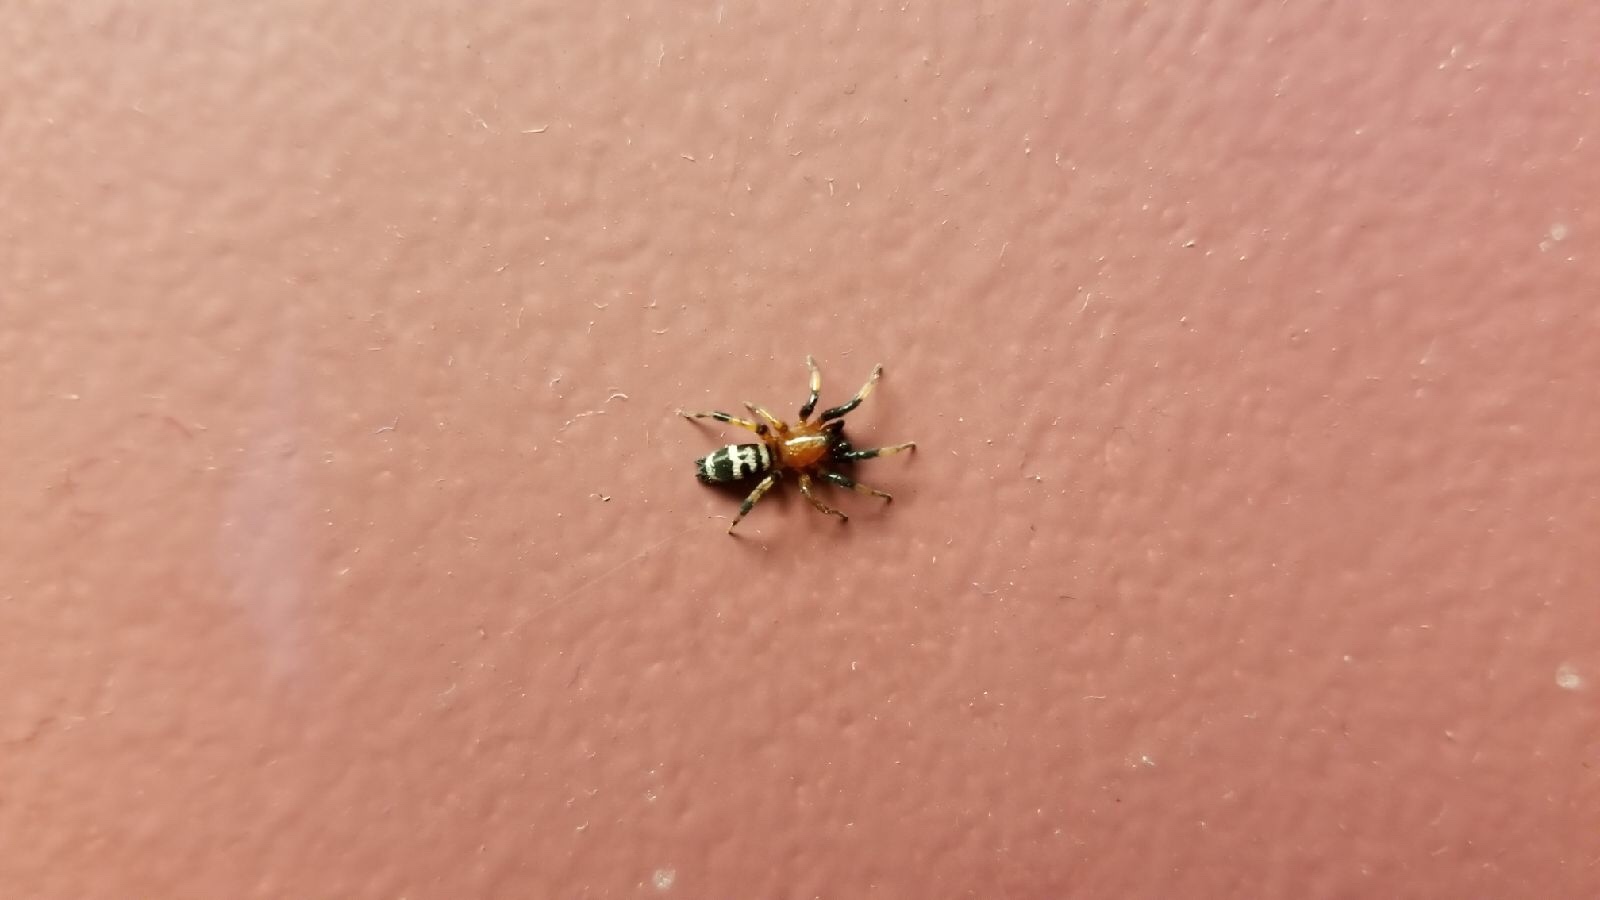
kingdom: Animalia
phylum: Arthropoda
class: Arachnida
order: Araneae
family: Gnaphosidae
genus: Sergiolus
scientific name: Sergiolus capulatus
